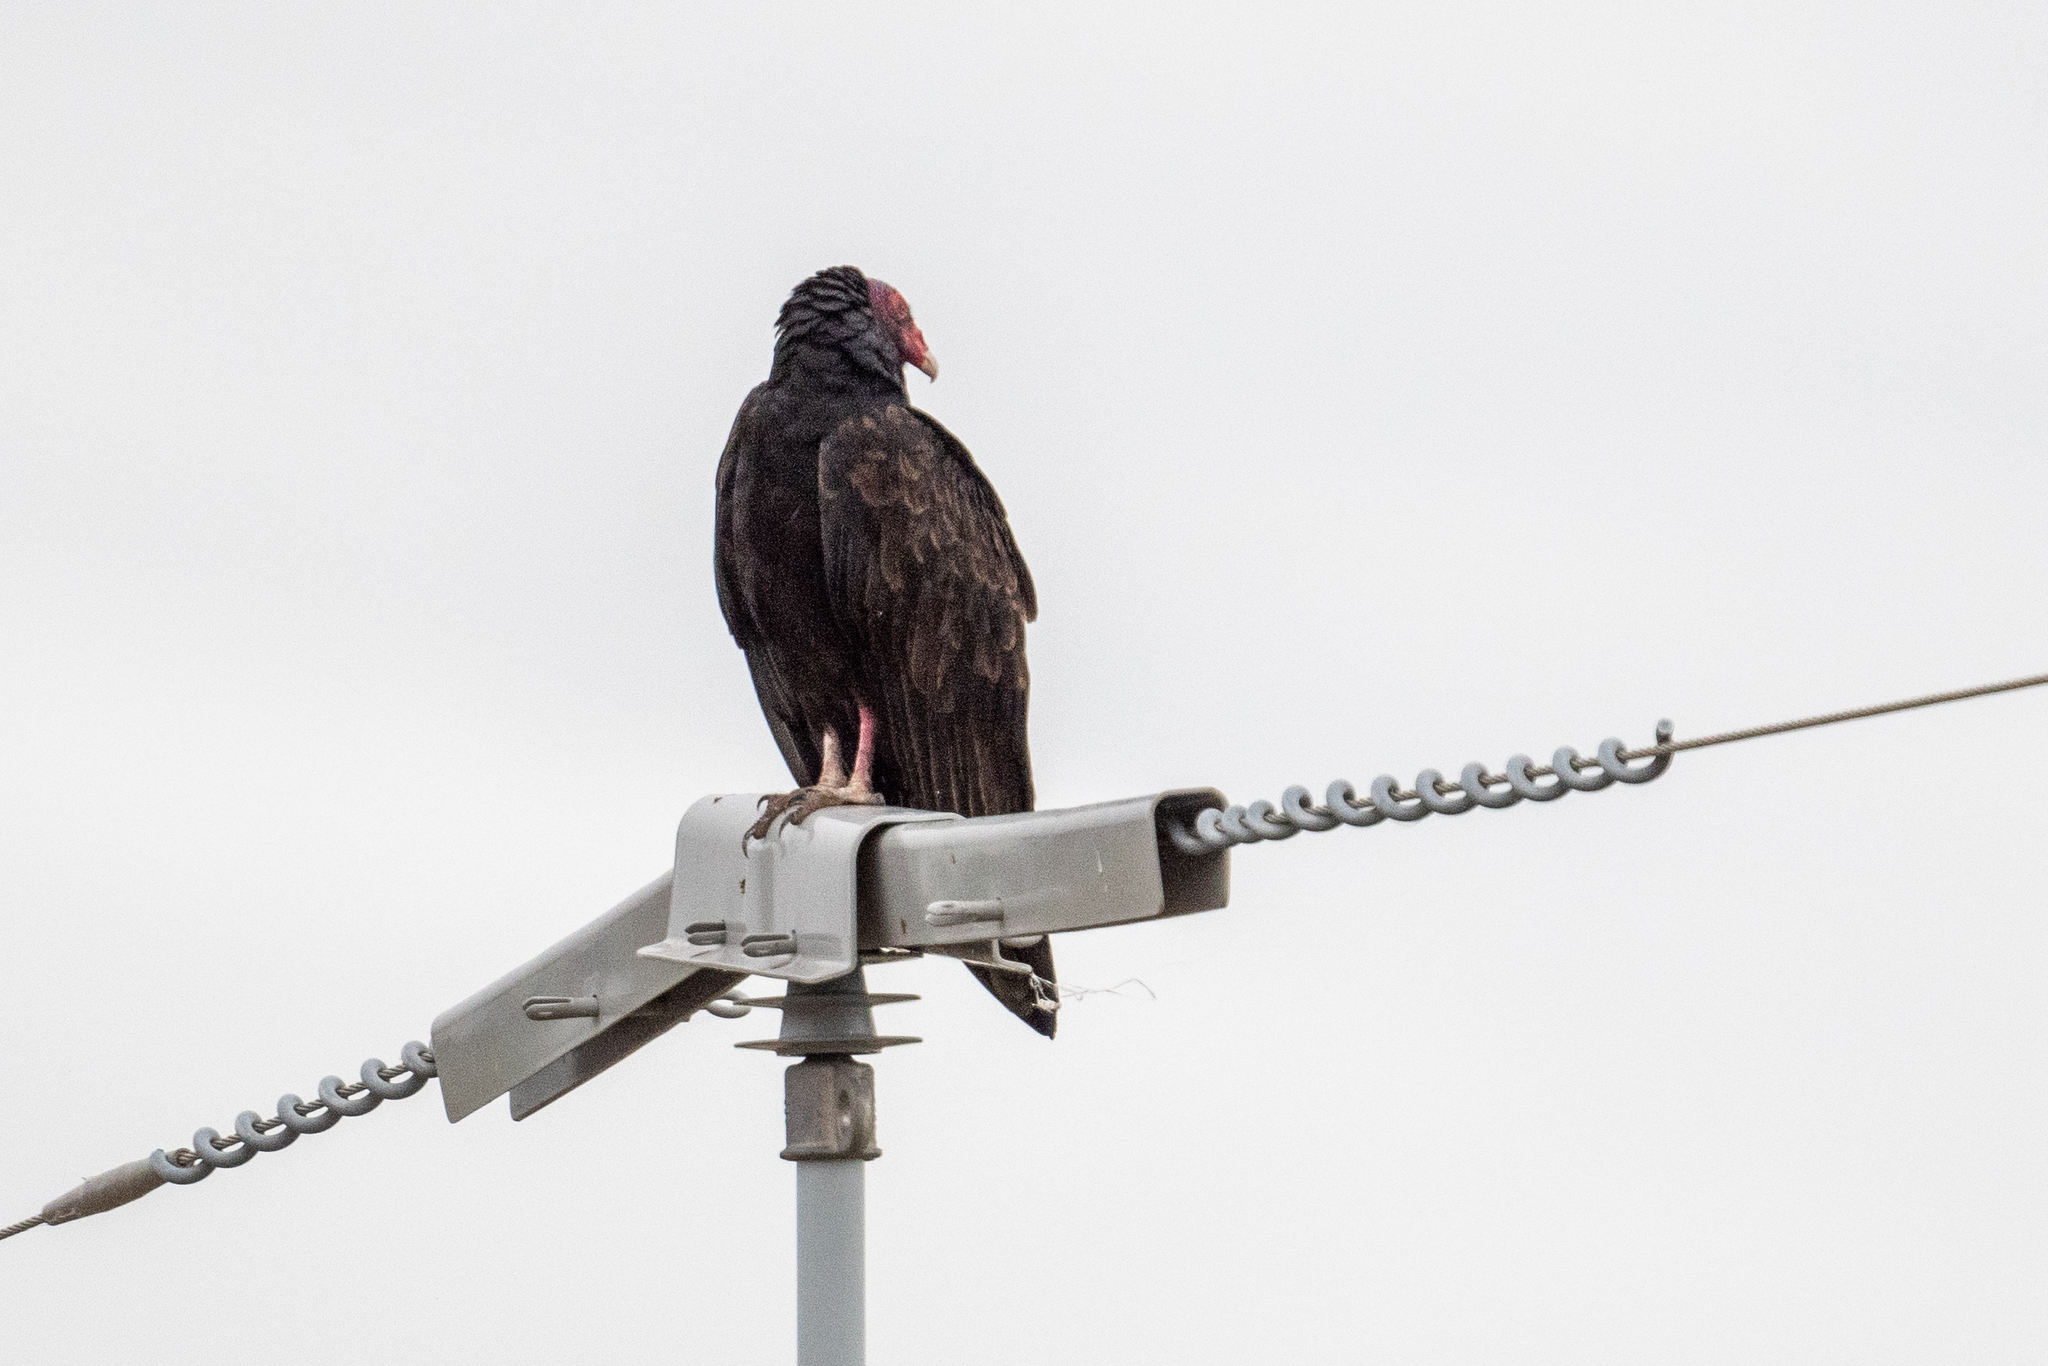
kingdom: Animalia
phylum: Chordata
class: Aves
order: Accipitriformes
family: Cathartidae
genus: Cathartes
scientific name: Cathartes aura
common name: Turkey vulture
